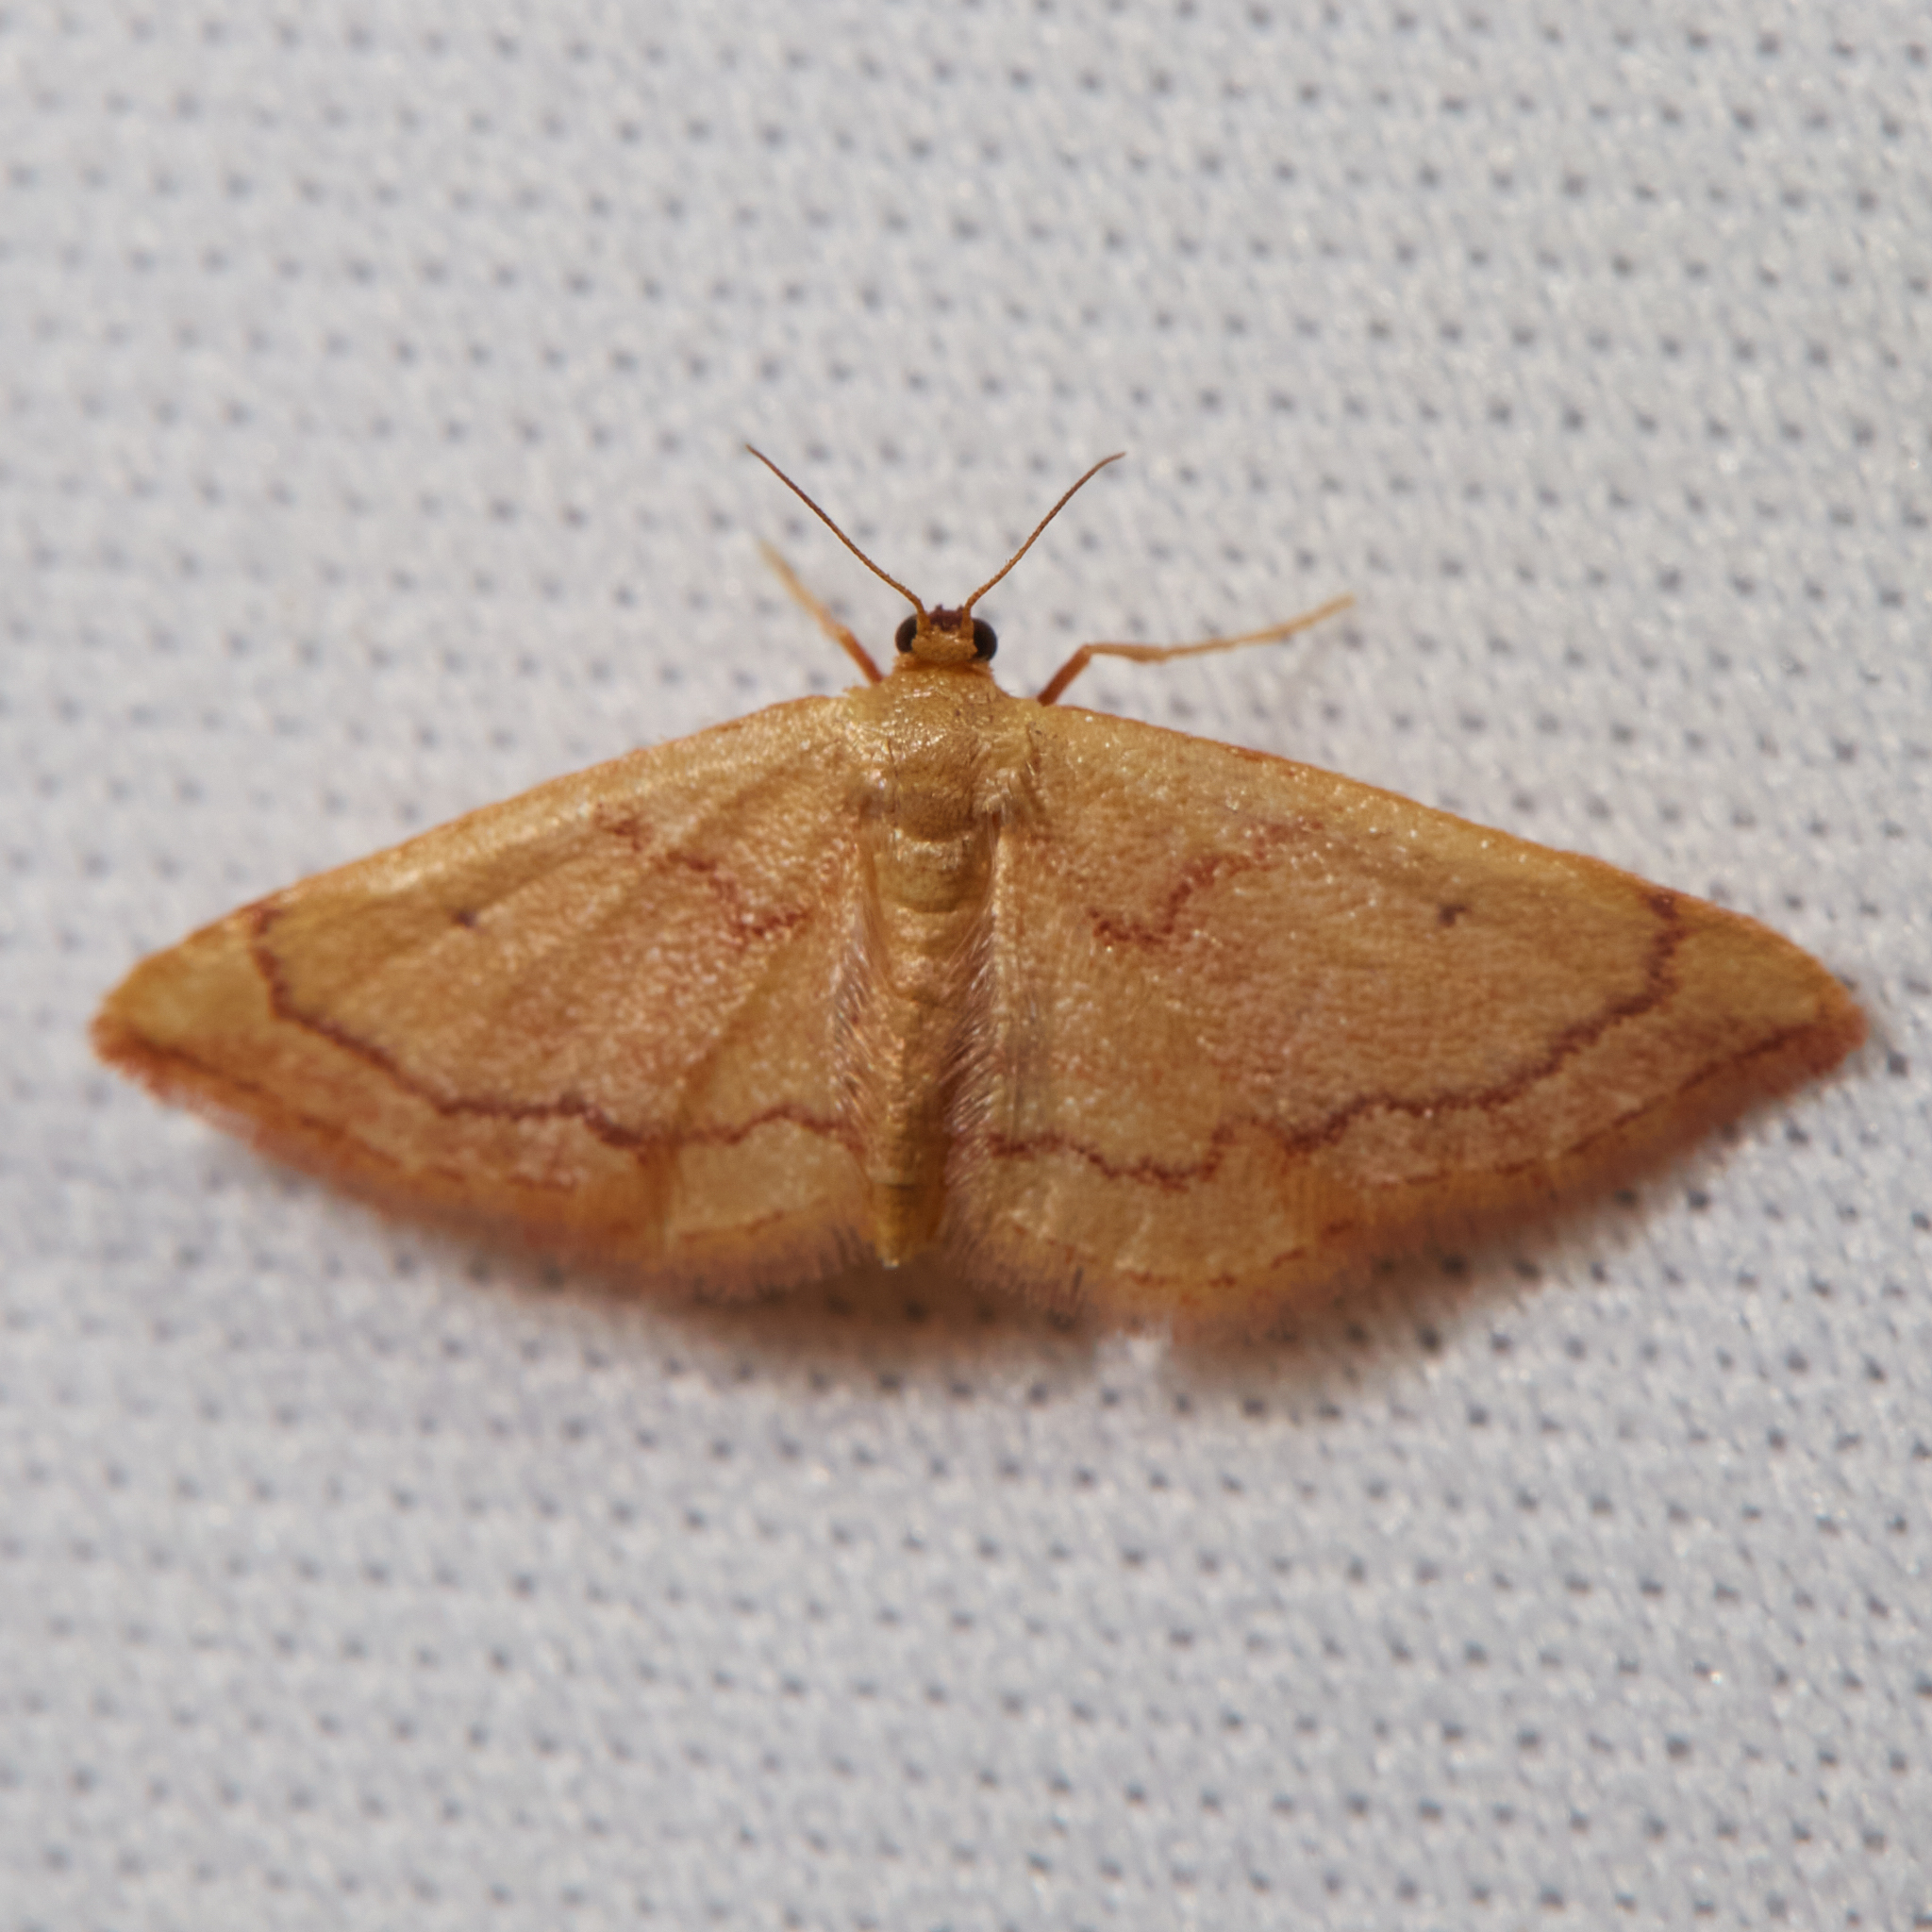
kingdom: Animalia
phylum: Arthropoda
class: Insecta
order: Lepidoptera
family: Geometridae
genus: Idaea
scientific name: Idaea demissaria
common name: Red-bordered wave
